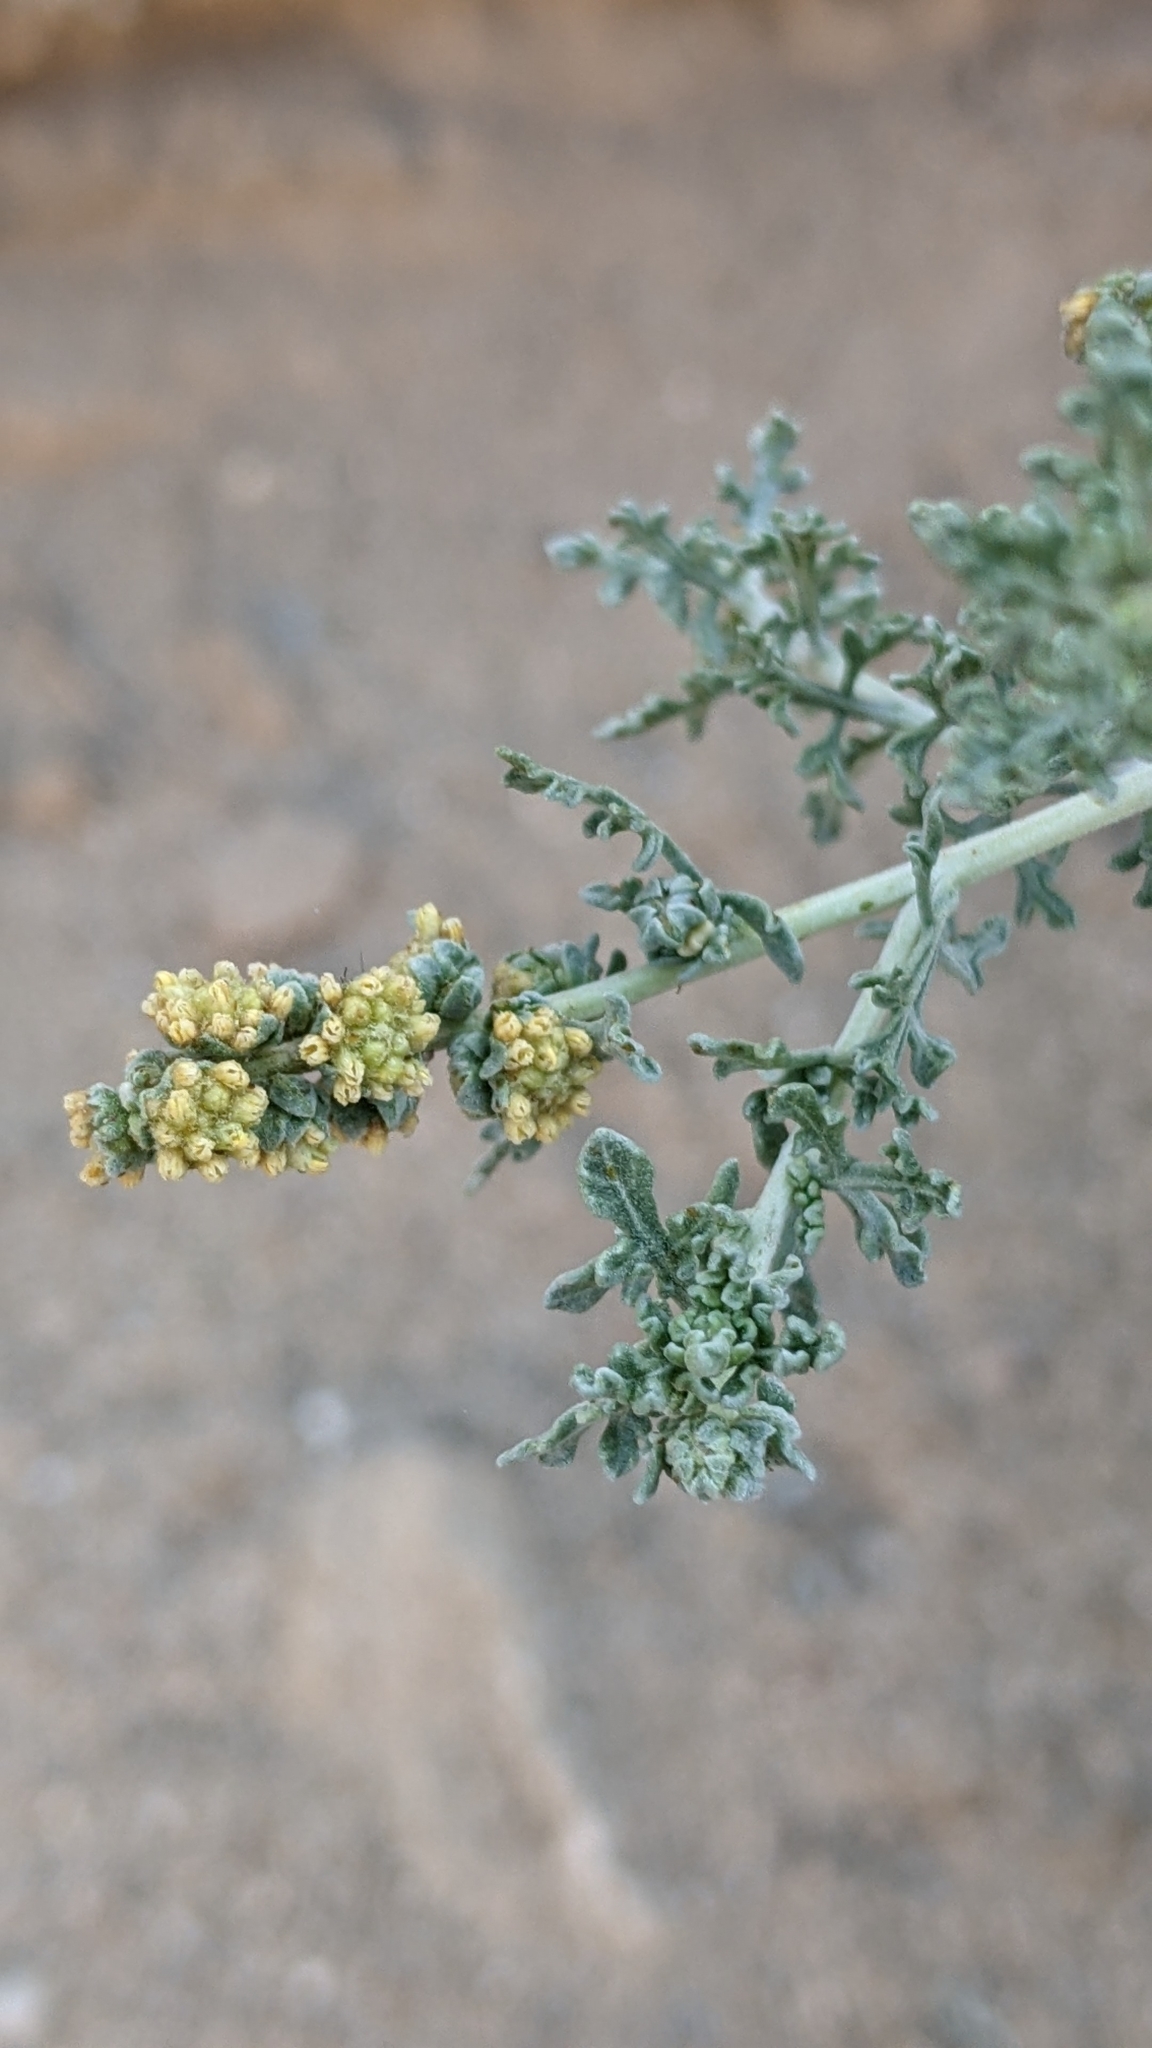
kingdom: Plantae
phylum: Tracheophyta
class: Magnoliopsida
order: Asterales
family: Asteraceae
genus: Ambrosia
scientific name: Ambrosia dumosa
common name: Bur-sage
